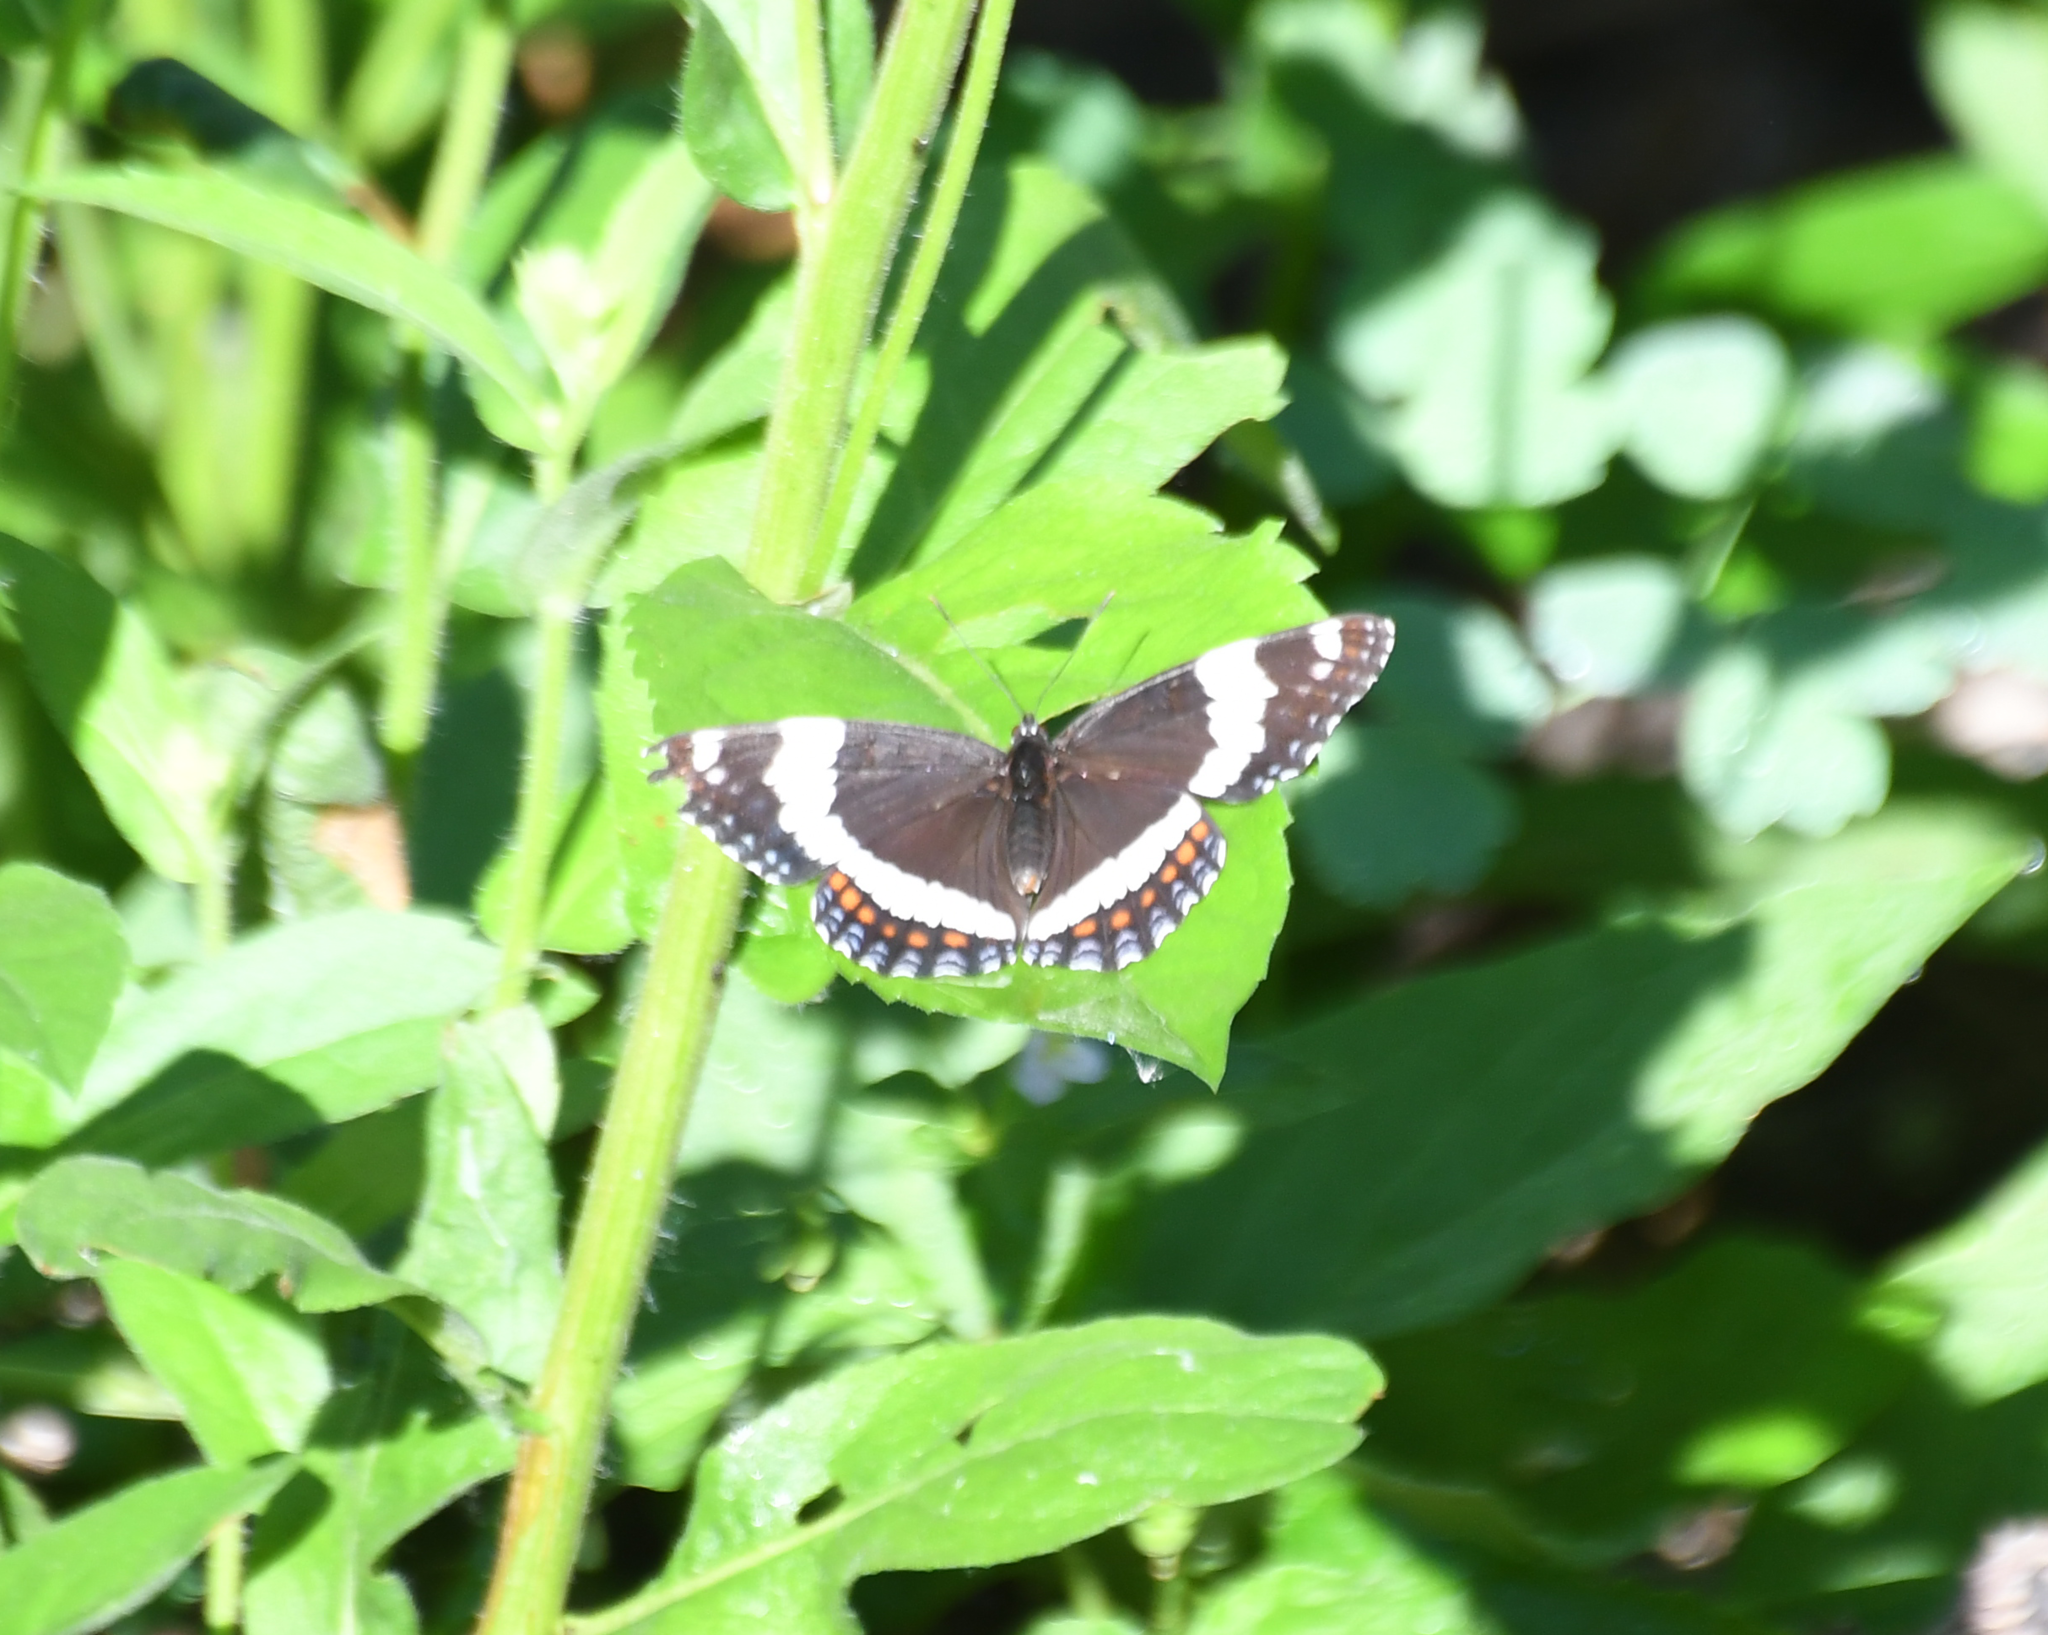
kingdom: Animalia
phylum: Arthropoda
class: Insecta
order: Lepidoptera
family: Nymphalidae
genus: Limenitis
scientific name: Limenitis arthemis
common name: Red-spotted admiral
